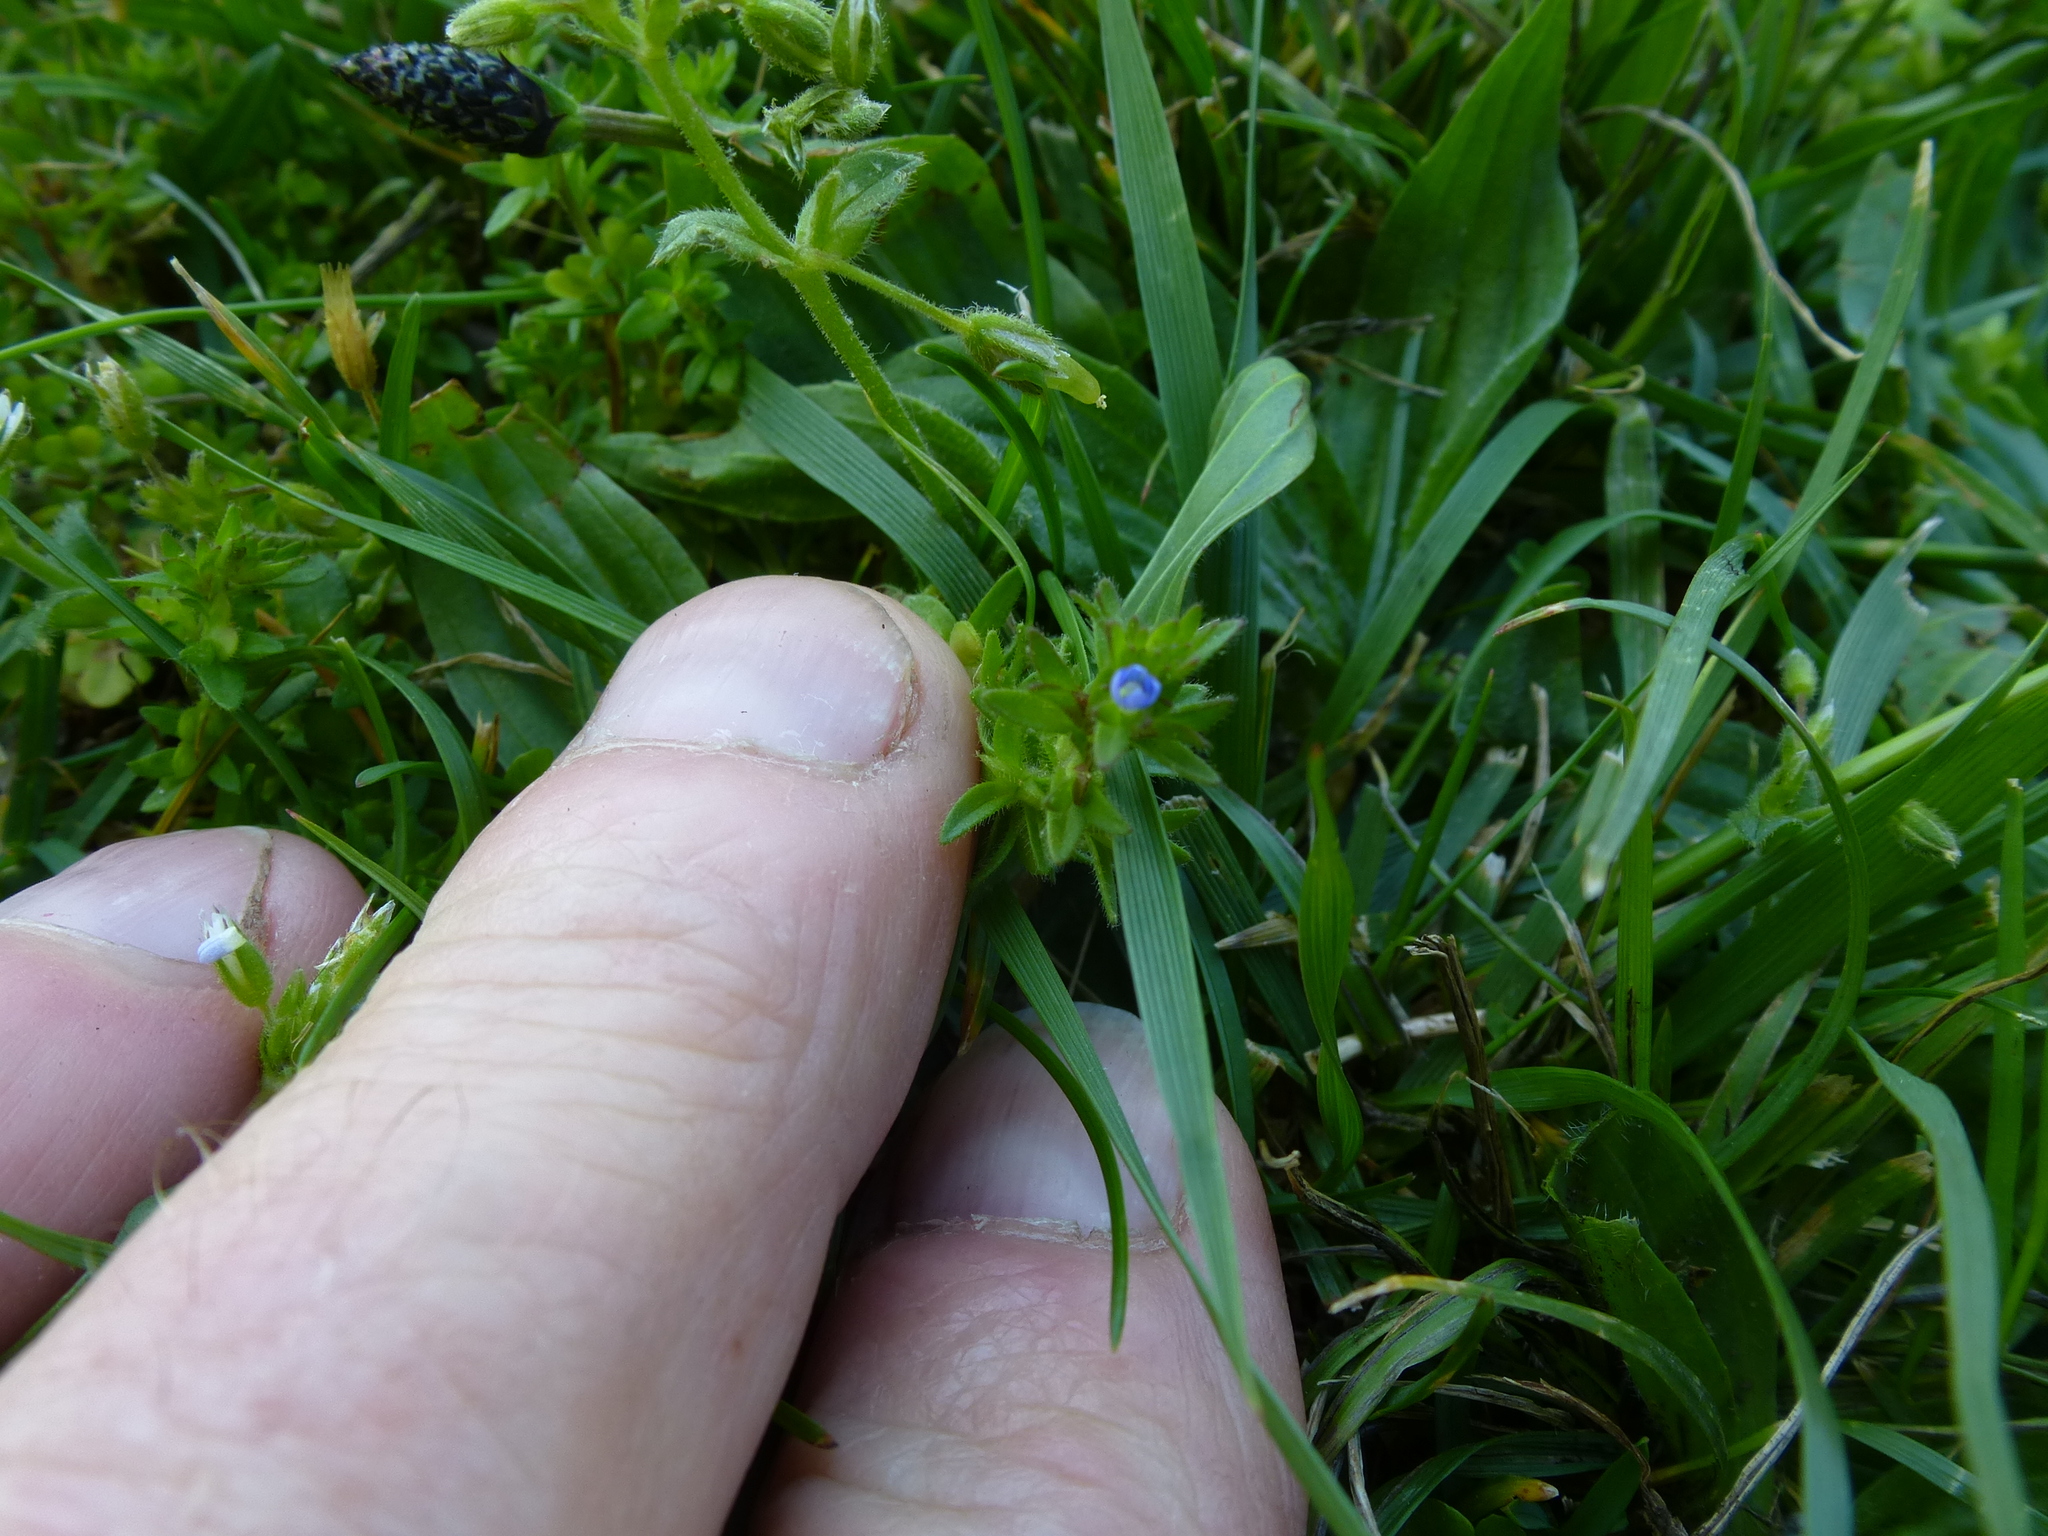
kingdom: Plantae
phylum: Tracheophyta
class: Magnoliopsida
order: Lamiales
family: Plantaginaceae
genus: Veronica
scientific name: Veronica arvensis
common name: Corn speedwell
